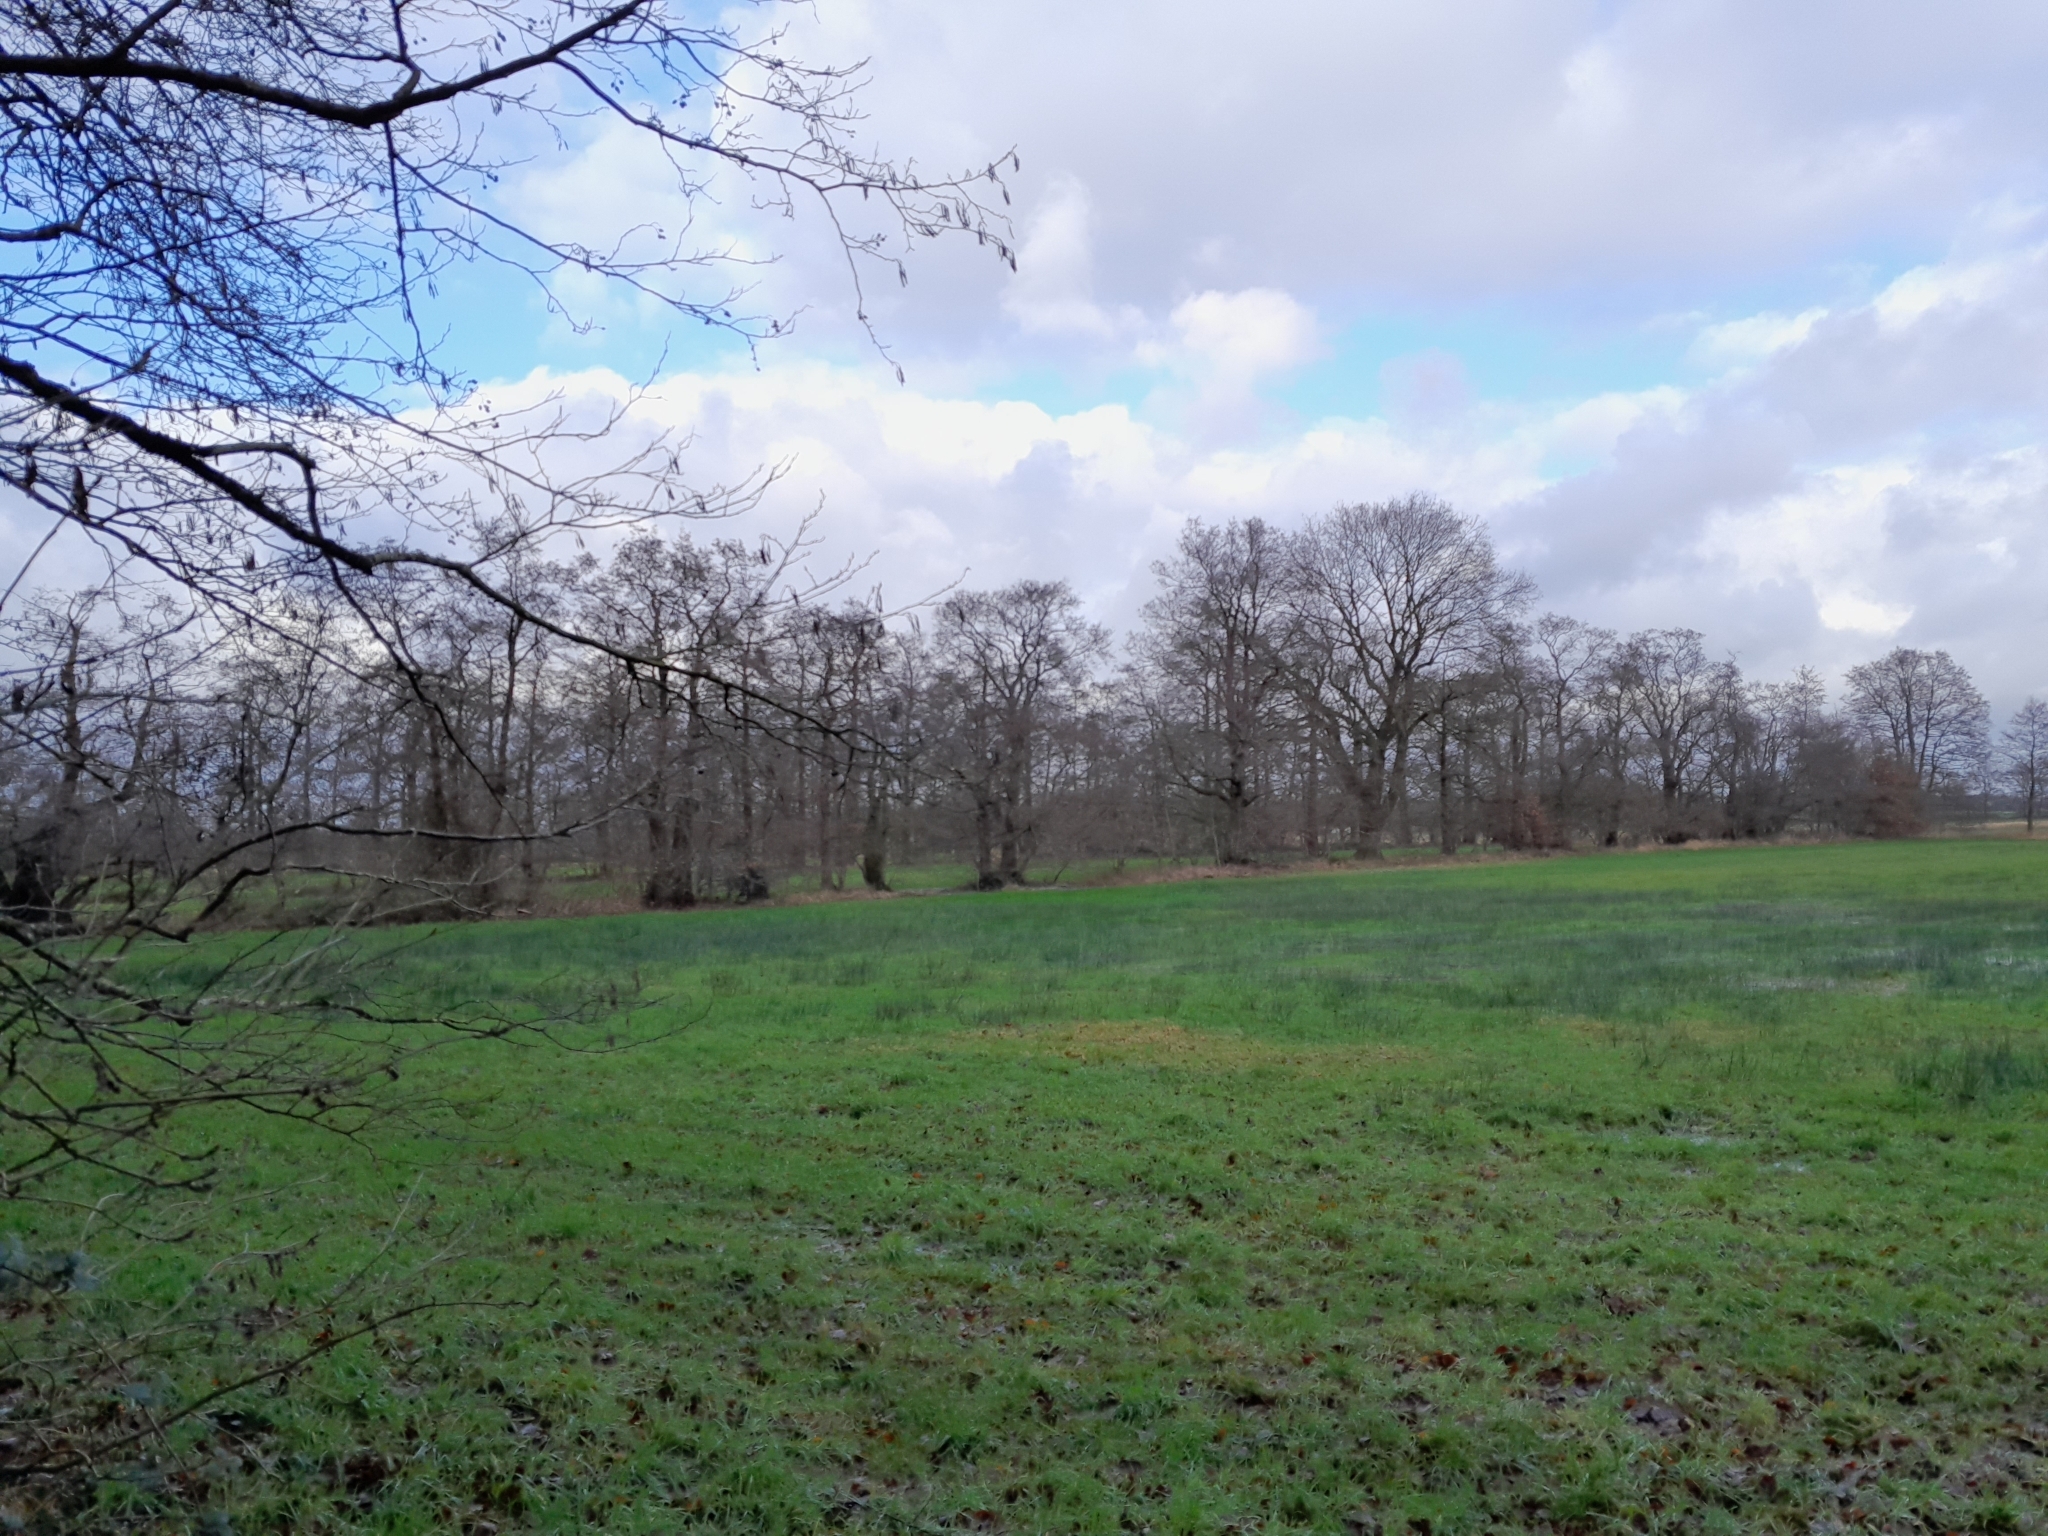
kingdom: Plantae
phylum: Tracheophyta
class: Magnoliopsida
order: Fagales
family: Betulaceae
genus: Alnus
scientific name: Alnus glutinosa
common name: Black alder
